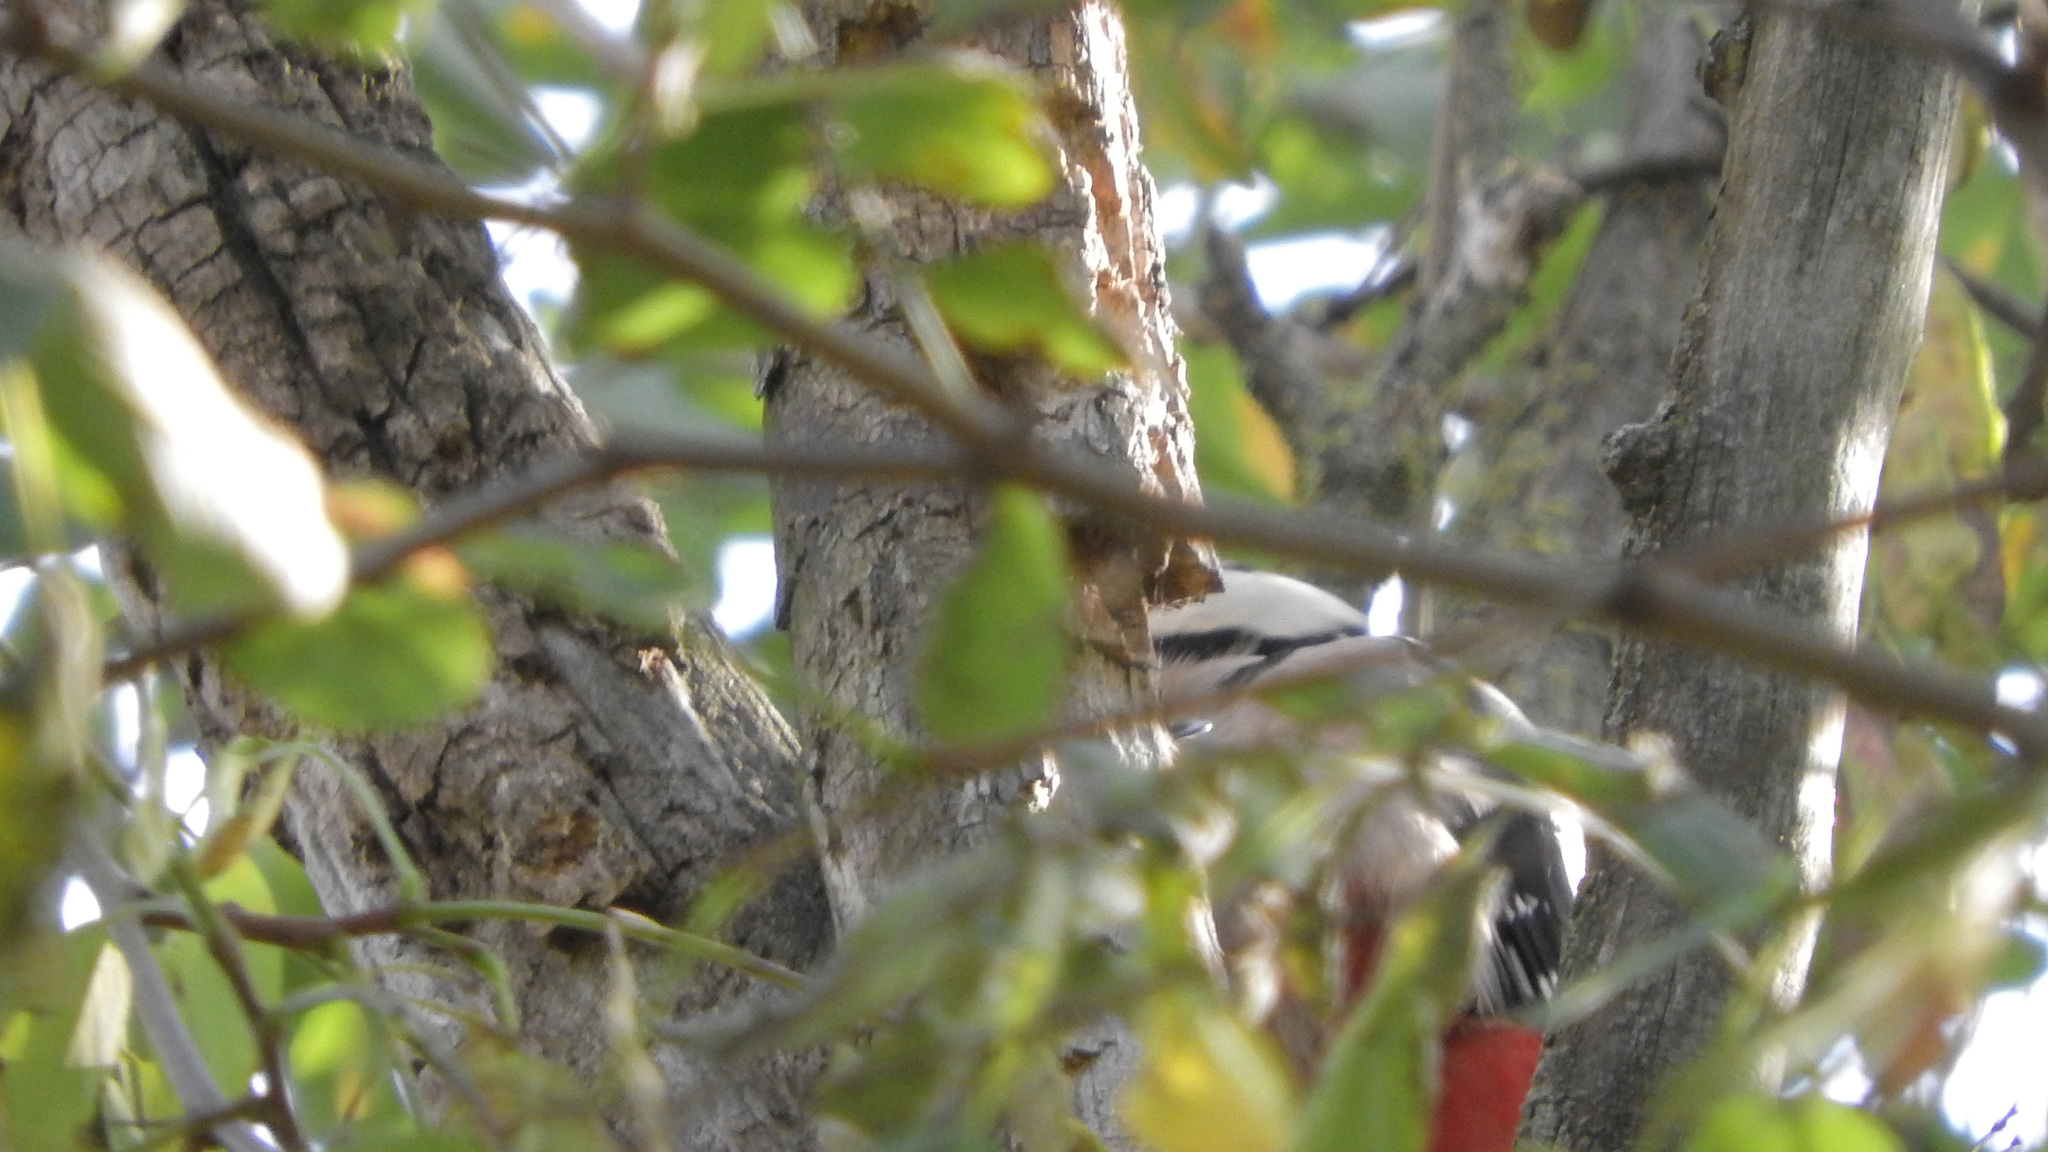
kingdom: Animalia
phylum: Chordata
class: Aves
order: Piciformes
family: Picidae
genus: Dendrocopos
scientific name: Dendrocopos major
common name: Great spotted woodpecker
